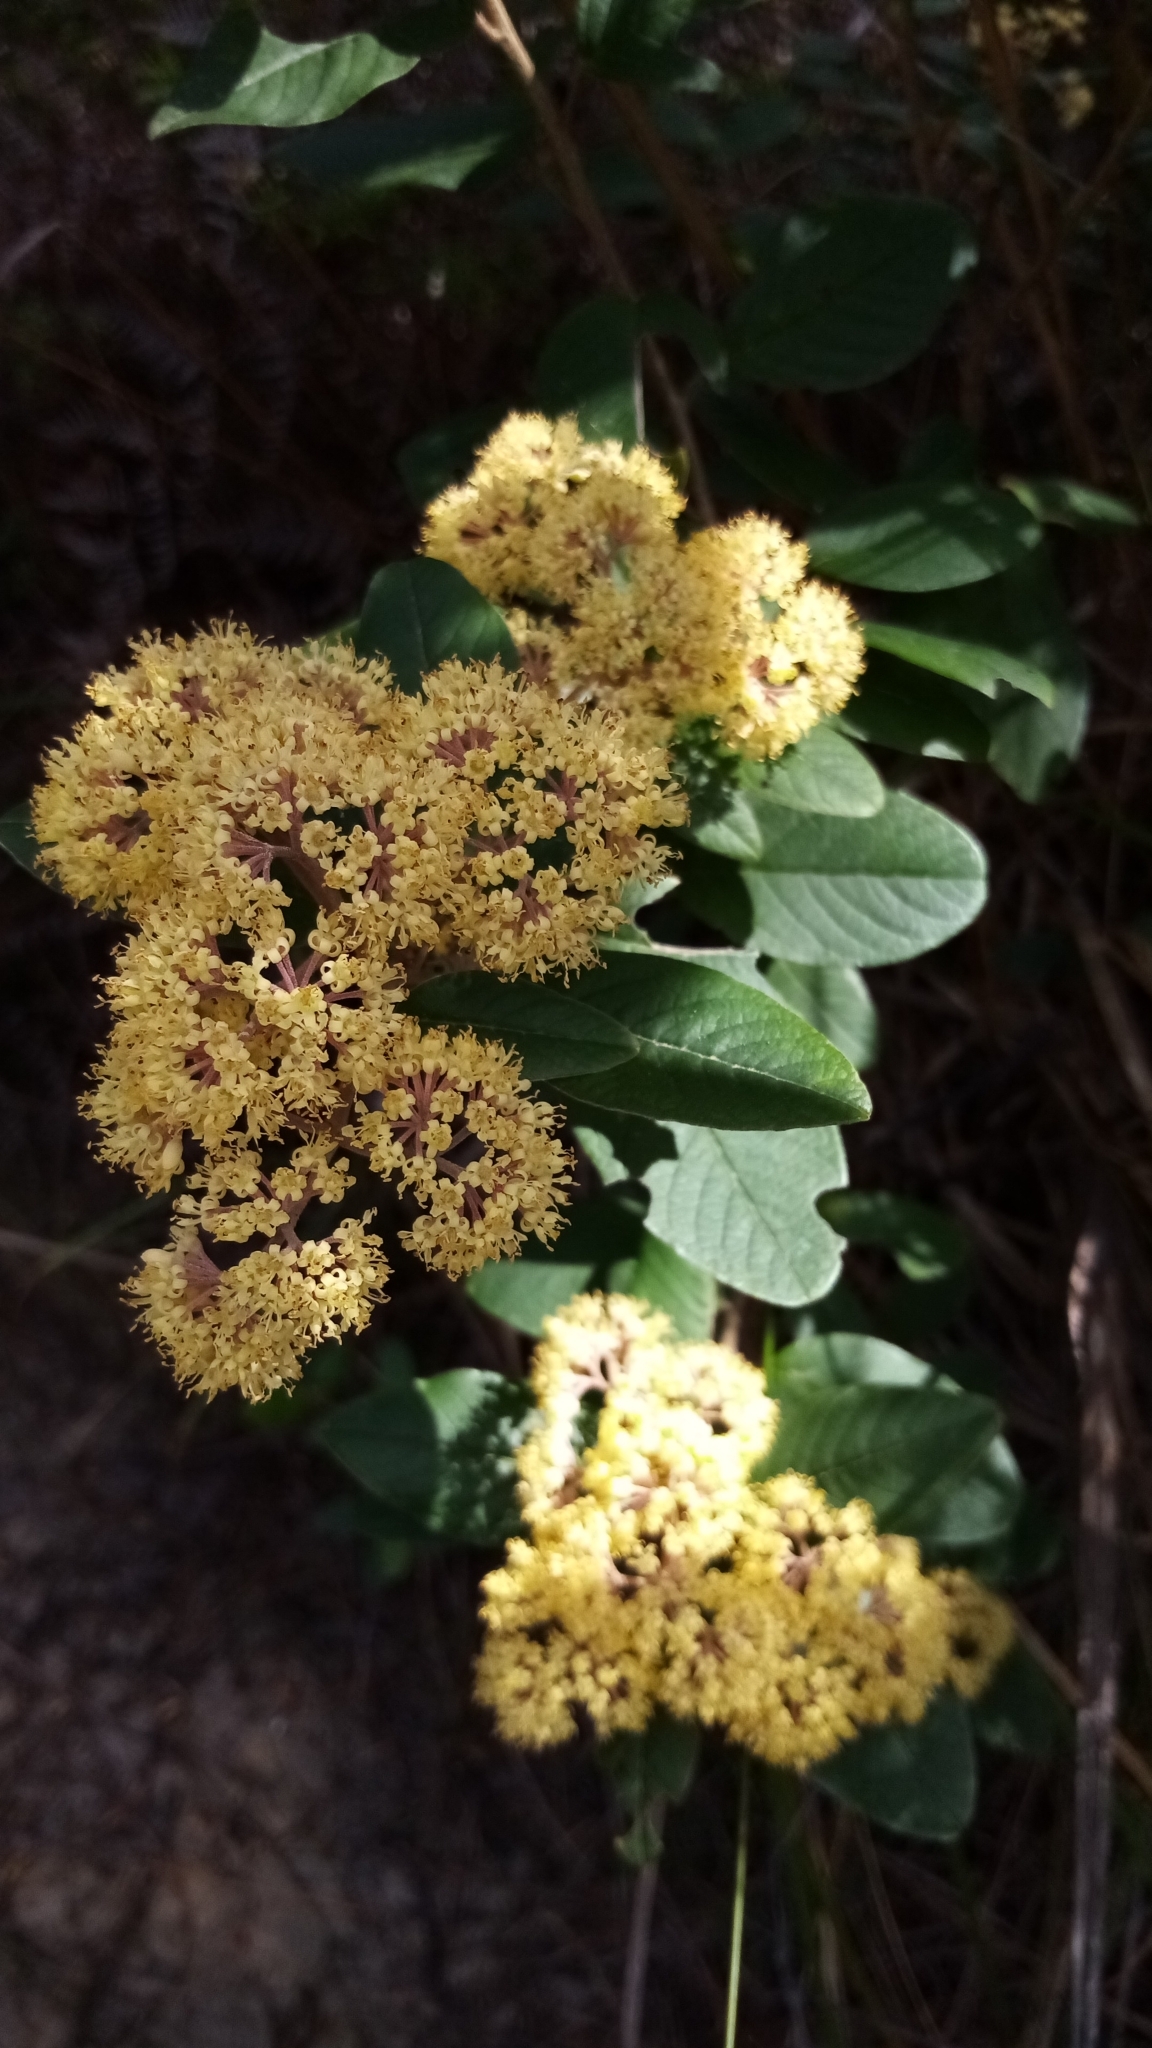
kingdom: Plantae
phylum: Tracheophyta
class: Magnoliopsida
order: Rosales
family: Rhamnaceae
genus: Pomaderris
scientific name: Pomaderris kumeraho
